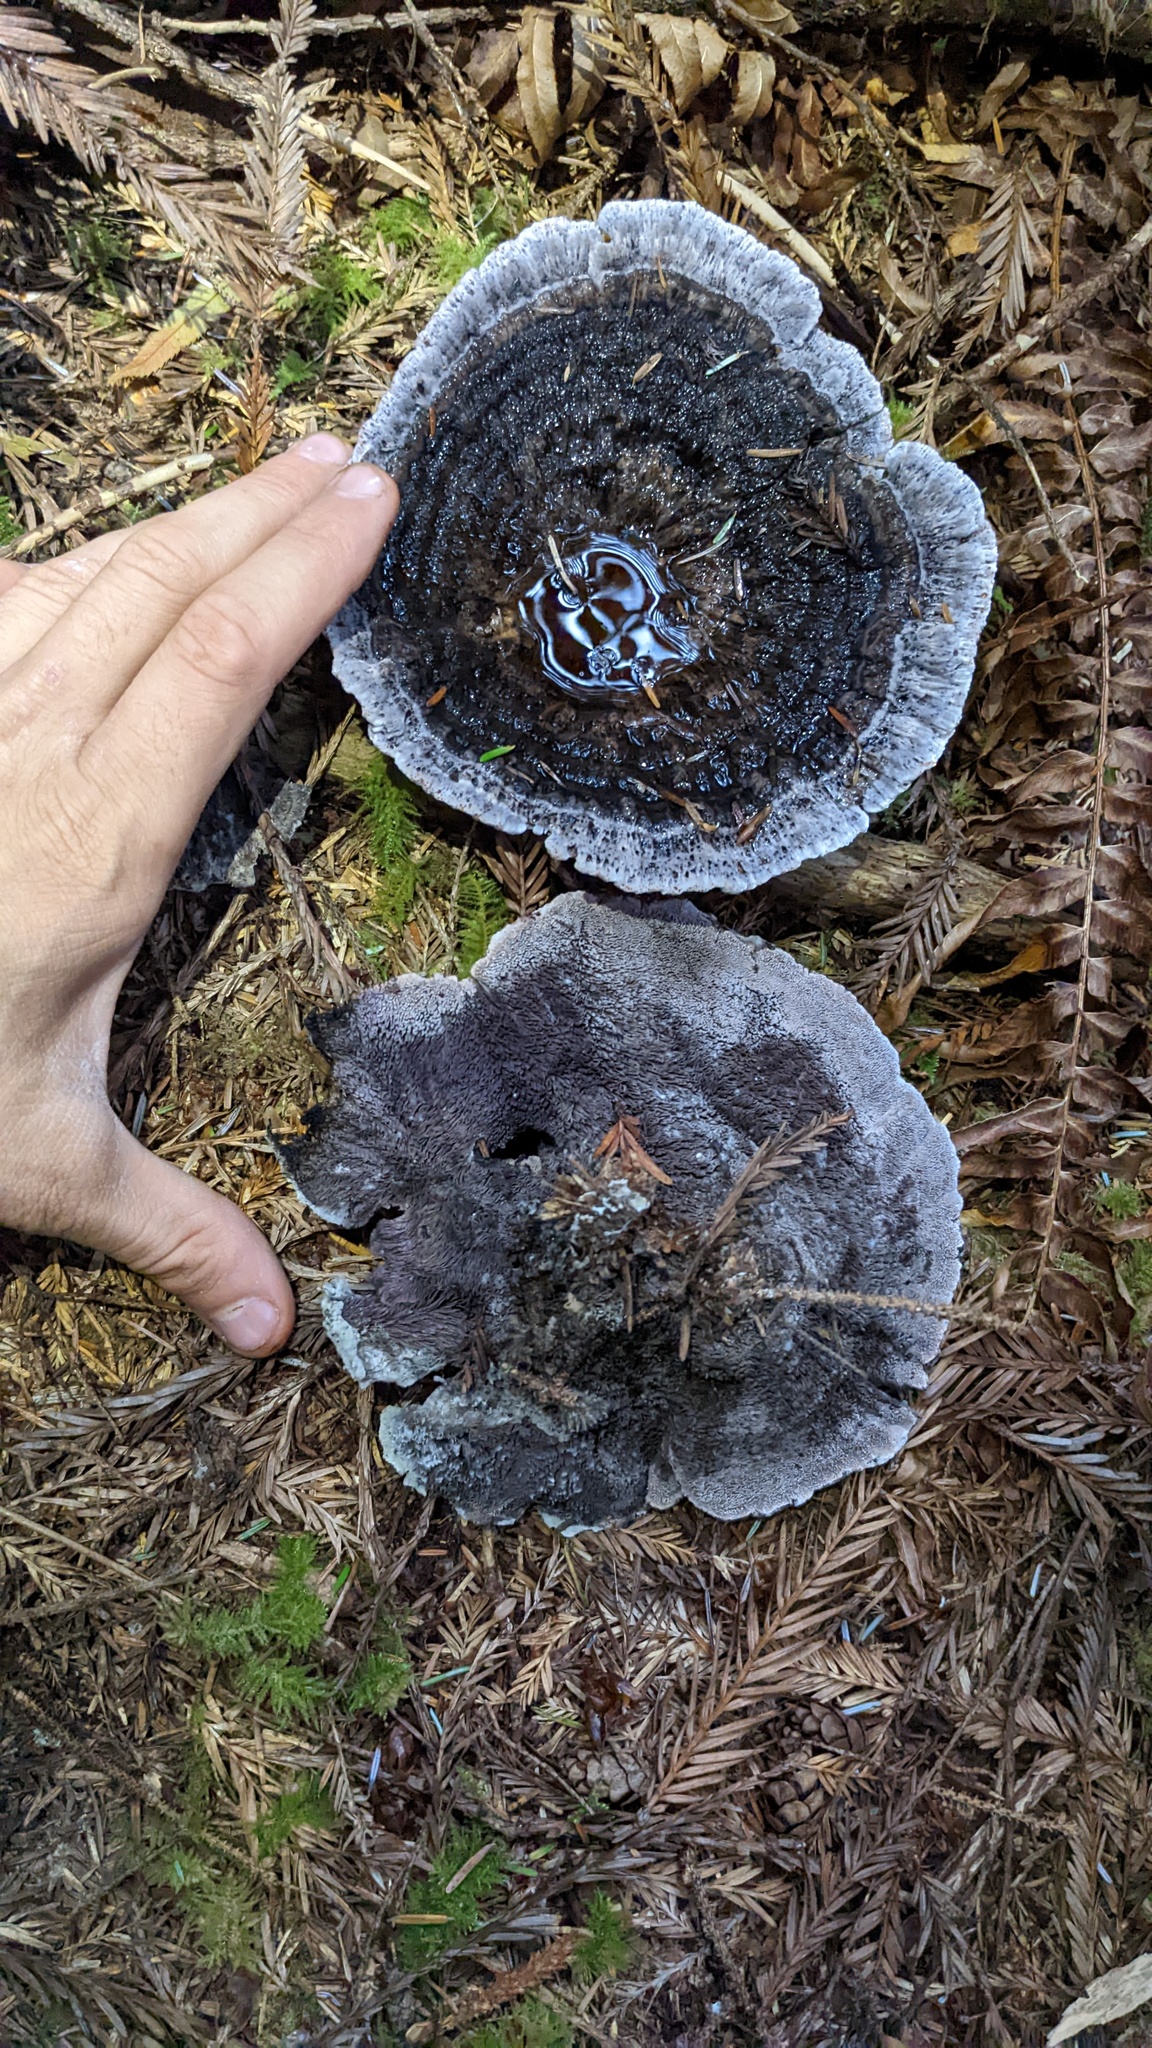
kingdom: Fungi
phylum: Basidiomycota
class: Agaricomycetes
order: Thelephorales
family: Bankeraceae
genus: Hydnellum
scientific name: Hydnellum cyanopodium
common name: Bleeding blue tooth
